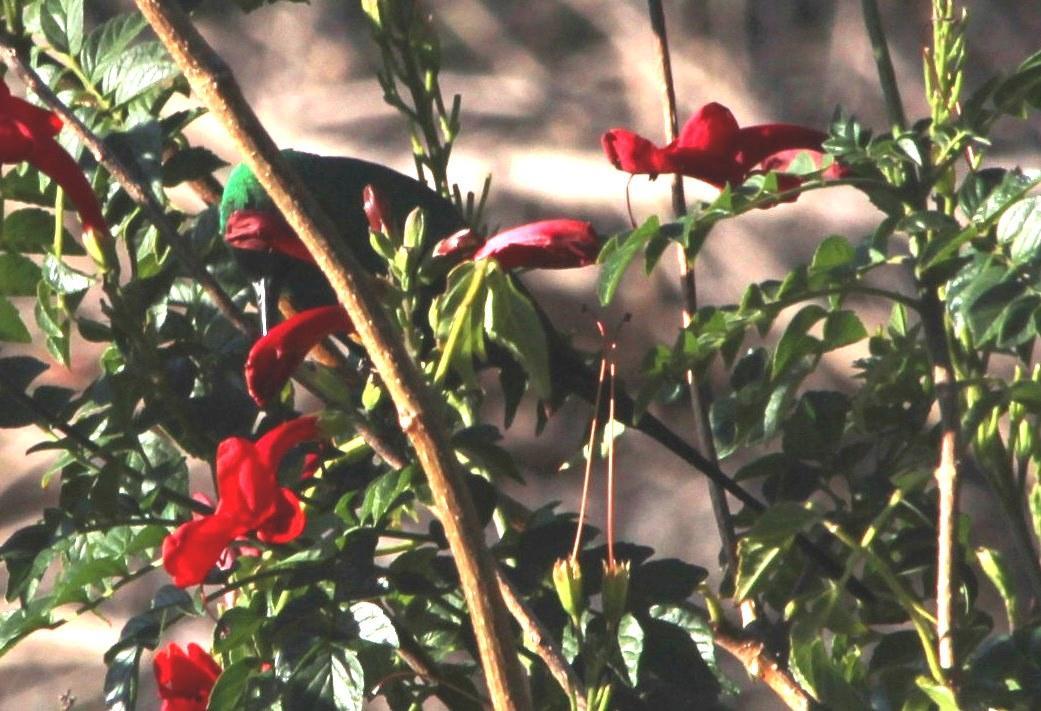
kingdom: Animalia
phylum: Chordata
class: Aves
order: Passeriformes
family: Nectariniidae
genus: Nectarinia
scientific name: Nectarinia famosa
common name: Malachite sunbird
